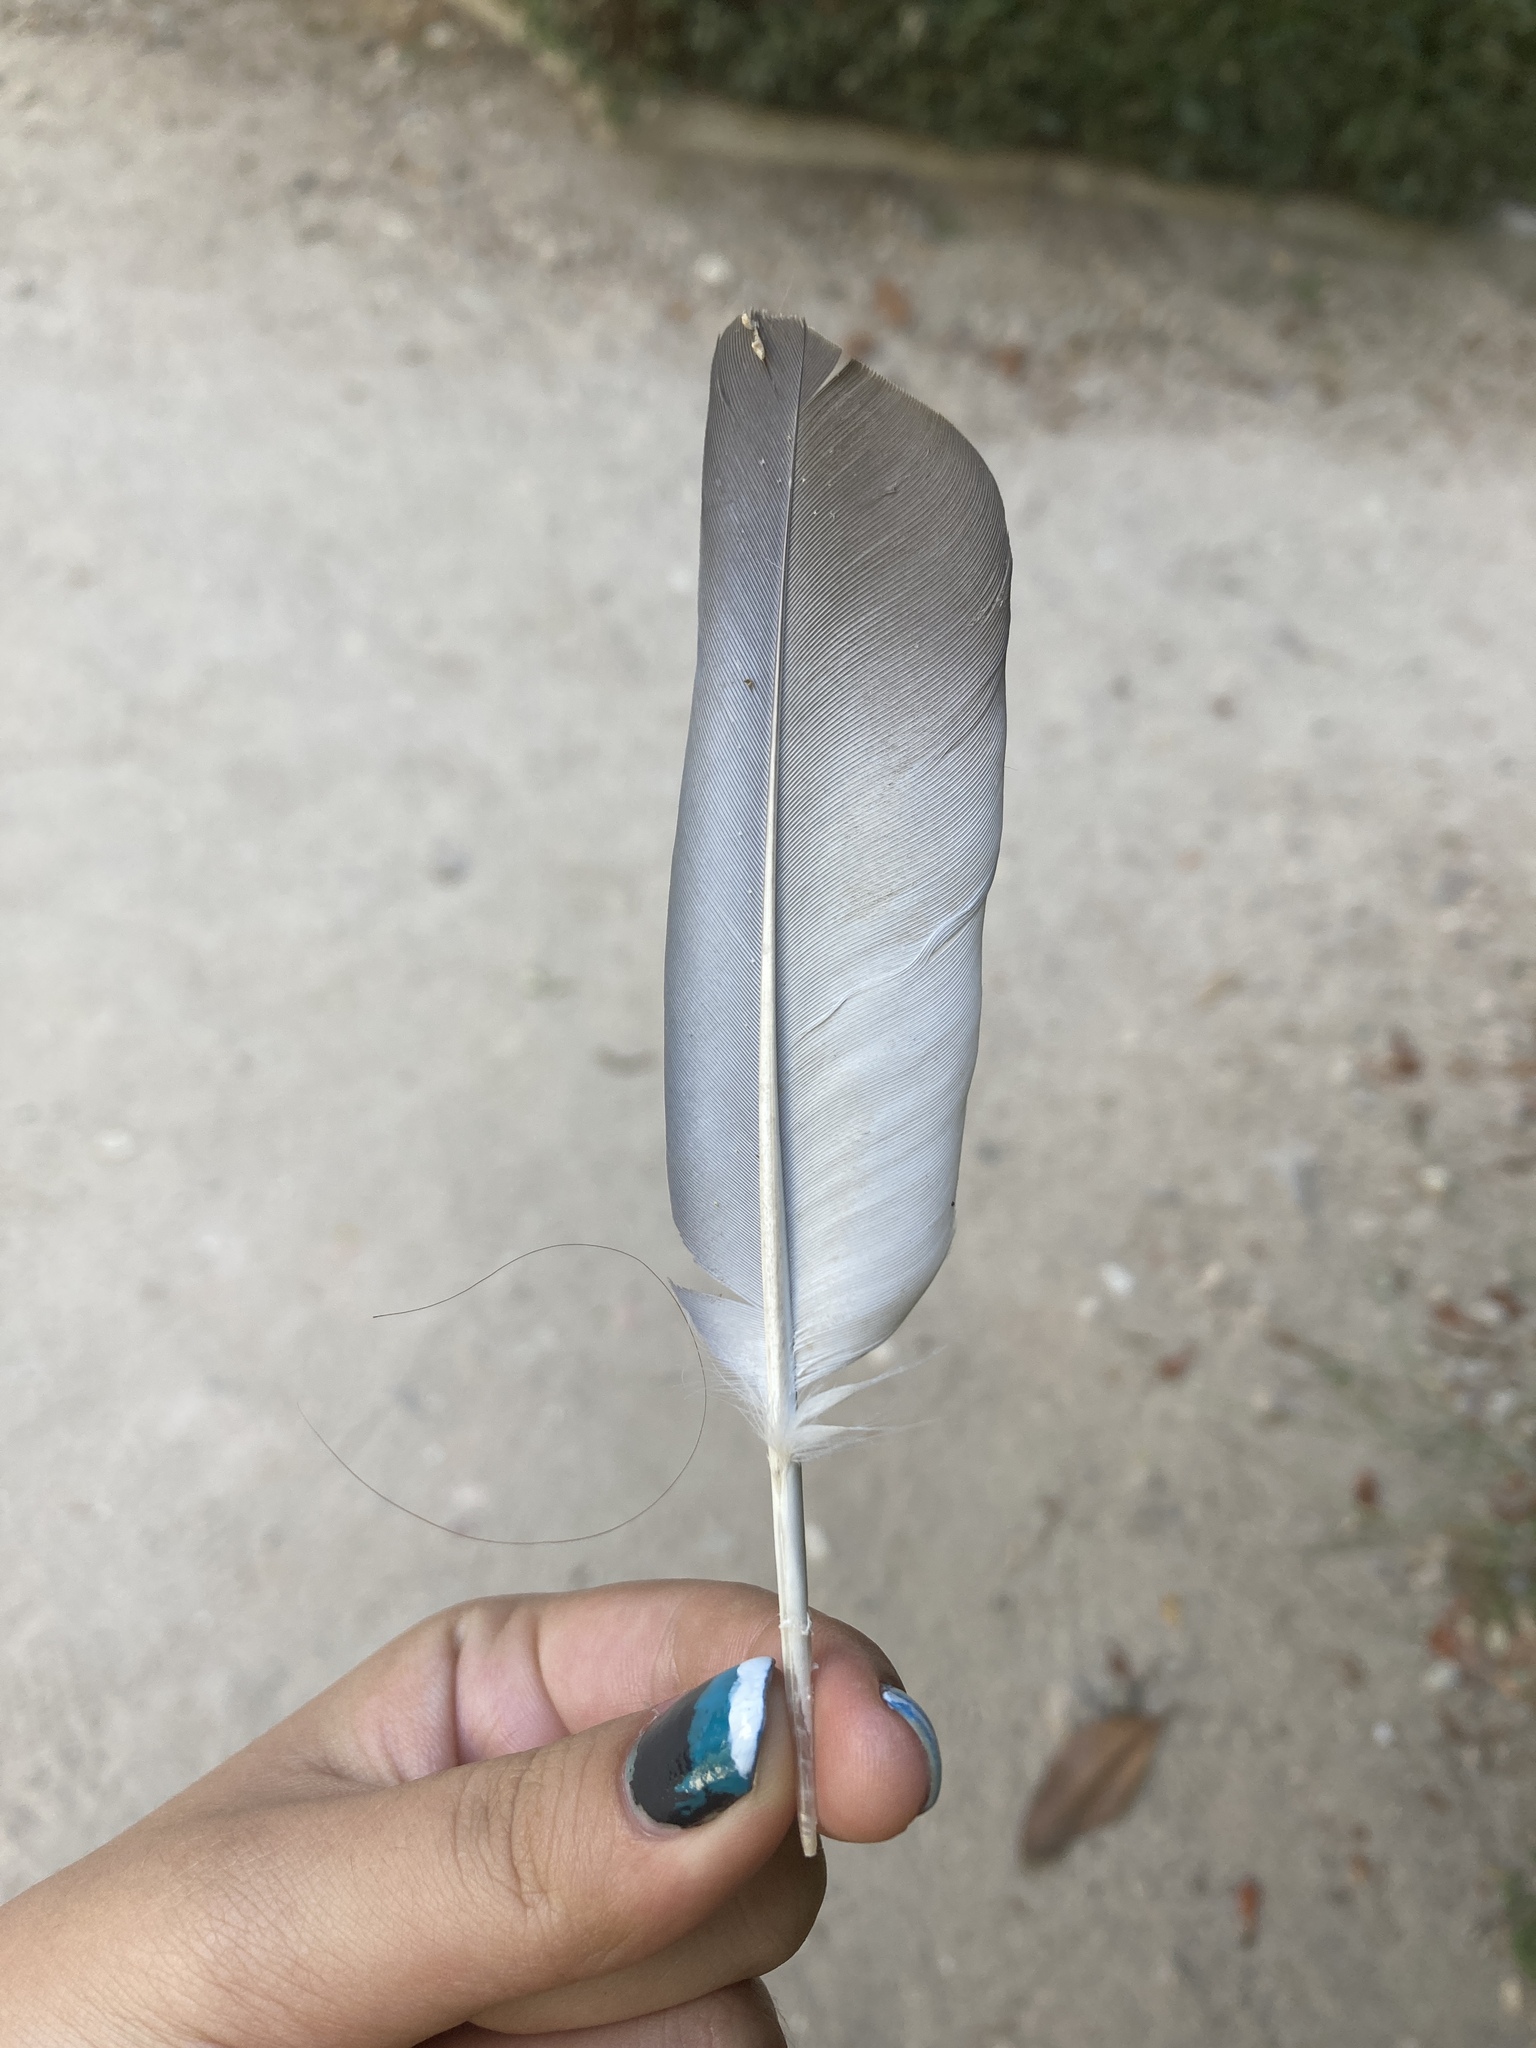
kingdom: Animalia
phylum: Chordata
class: Aves
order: Columbiformes
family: Columbidae
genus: Columba
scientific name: Columba livia
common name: Rock pigeon
